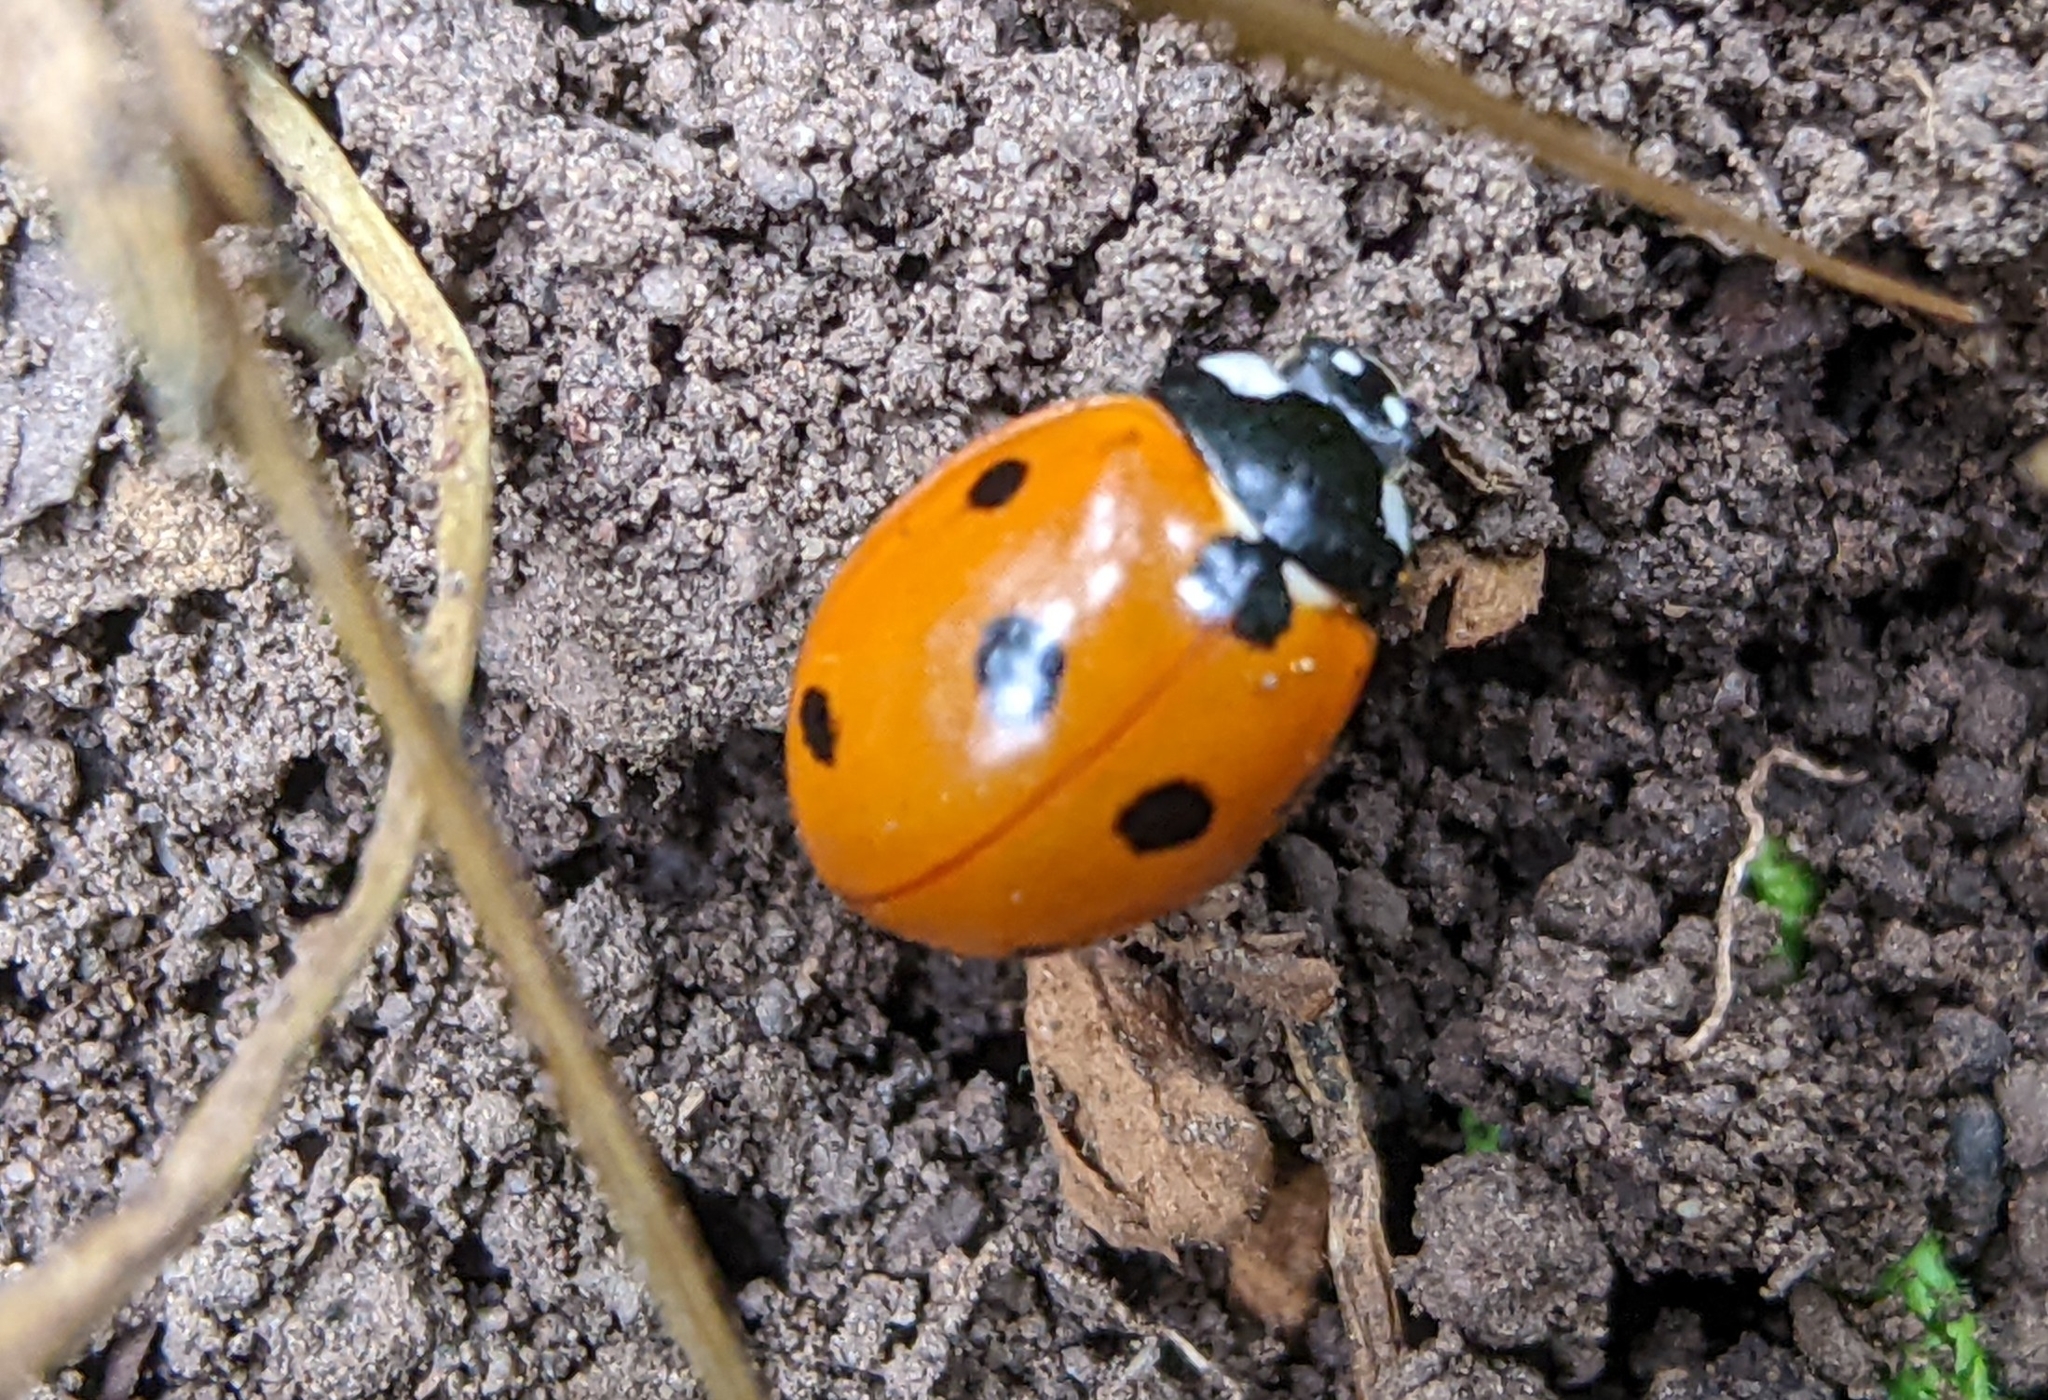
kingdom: Animalia
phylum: Arthropoda
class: Insecta
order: Coleoptera
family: Coccinellidae
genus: Coccinella
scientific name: Coccinella septempunctata
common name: Sevenspotted lady beetle
